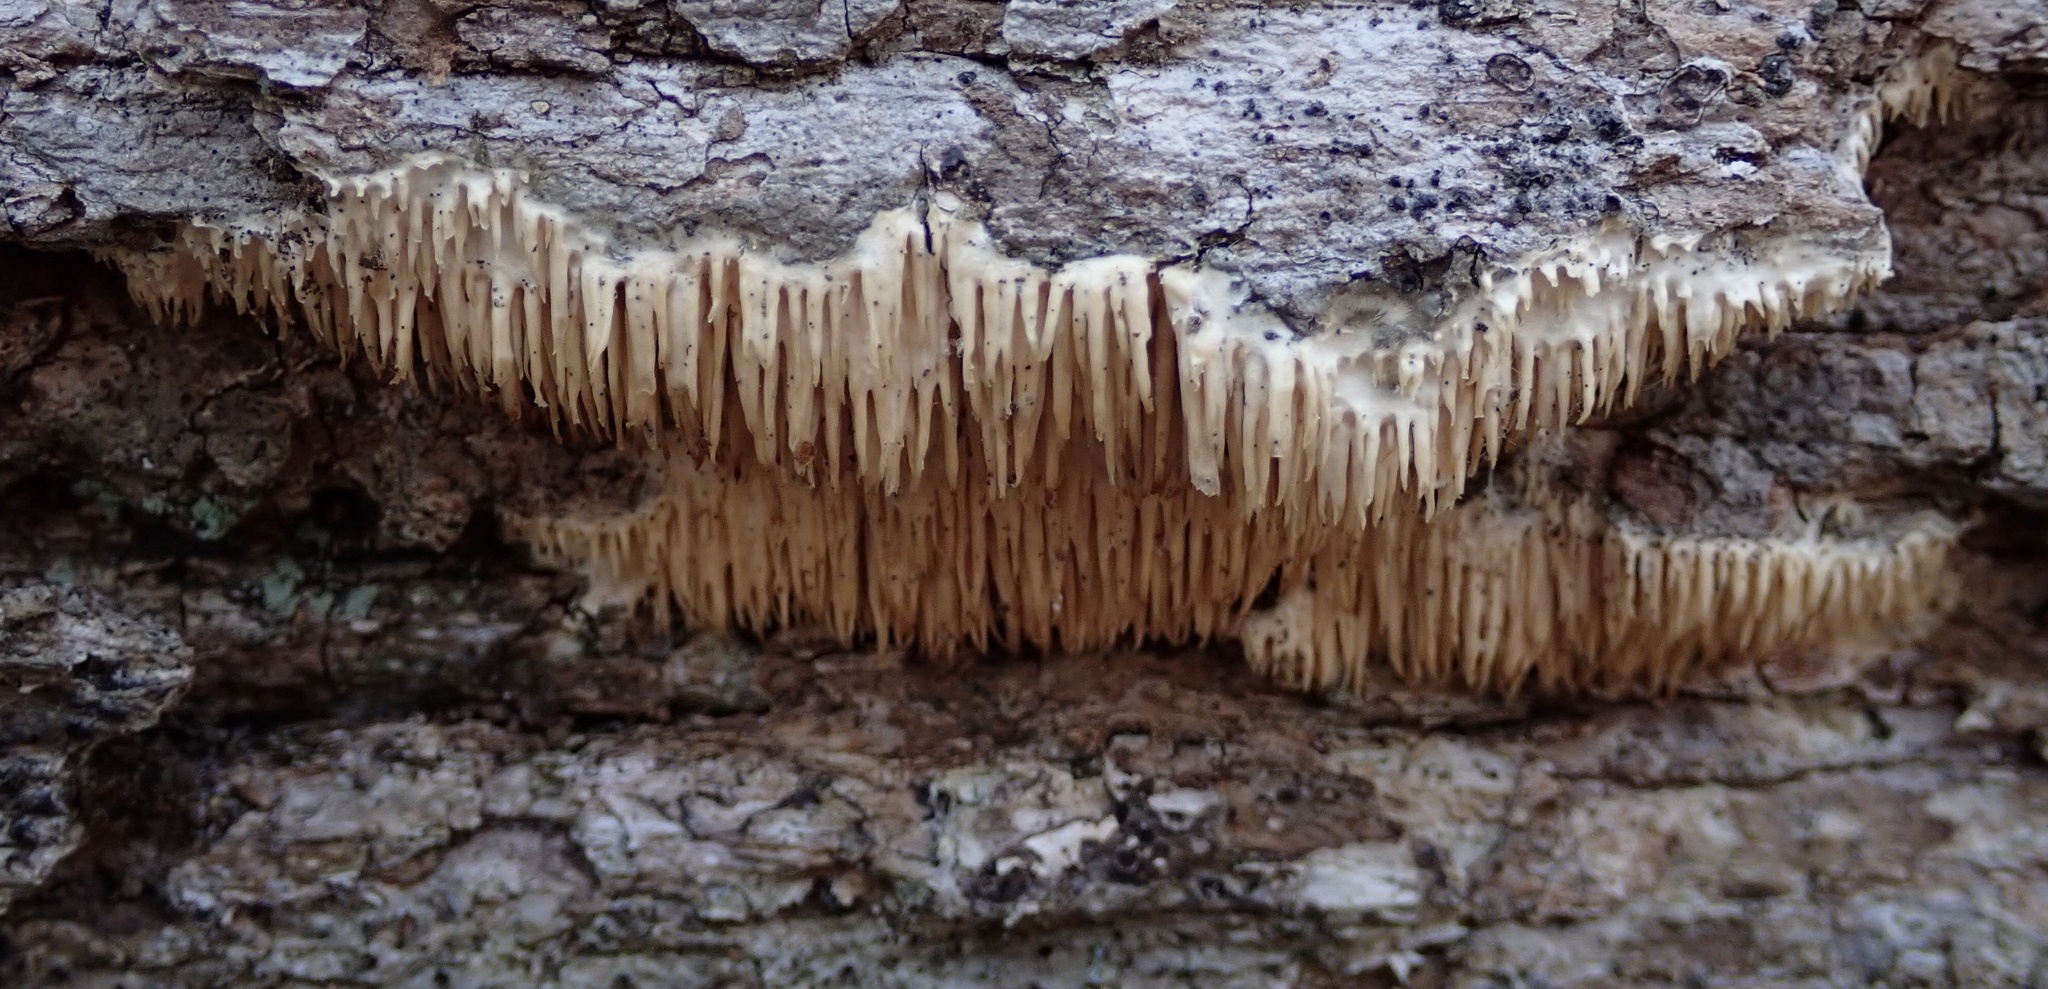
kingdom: Fungi
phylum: Basidiomycota
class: Agaricomycetes
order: Agaricales
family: Radulomycetaceae
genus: Radulomyces
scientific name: Radulomyces copelandii
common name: Asian beauty
